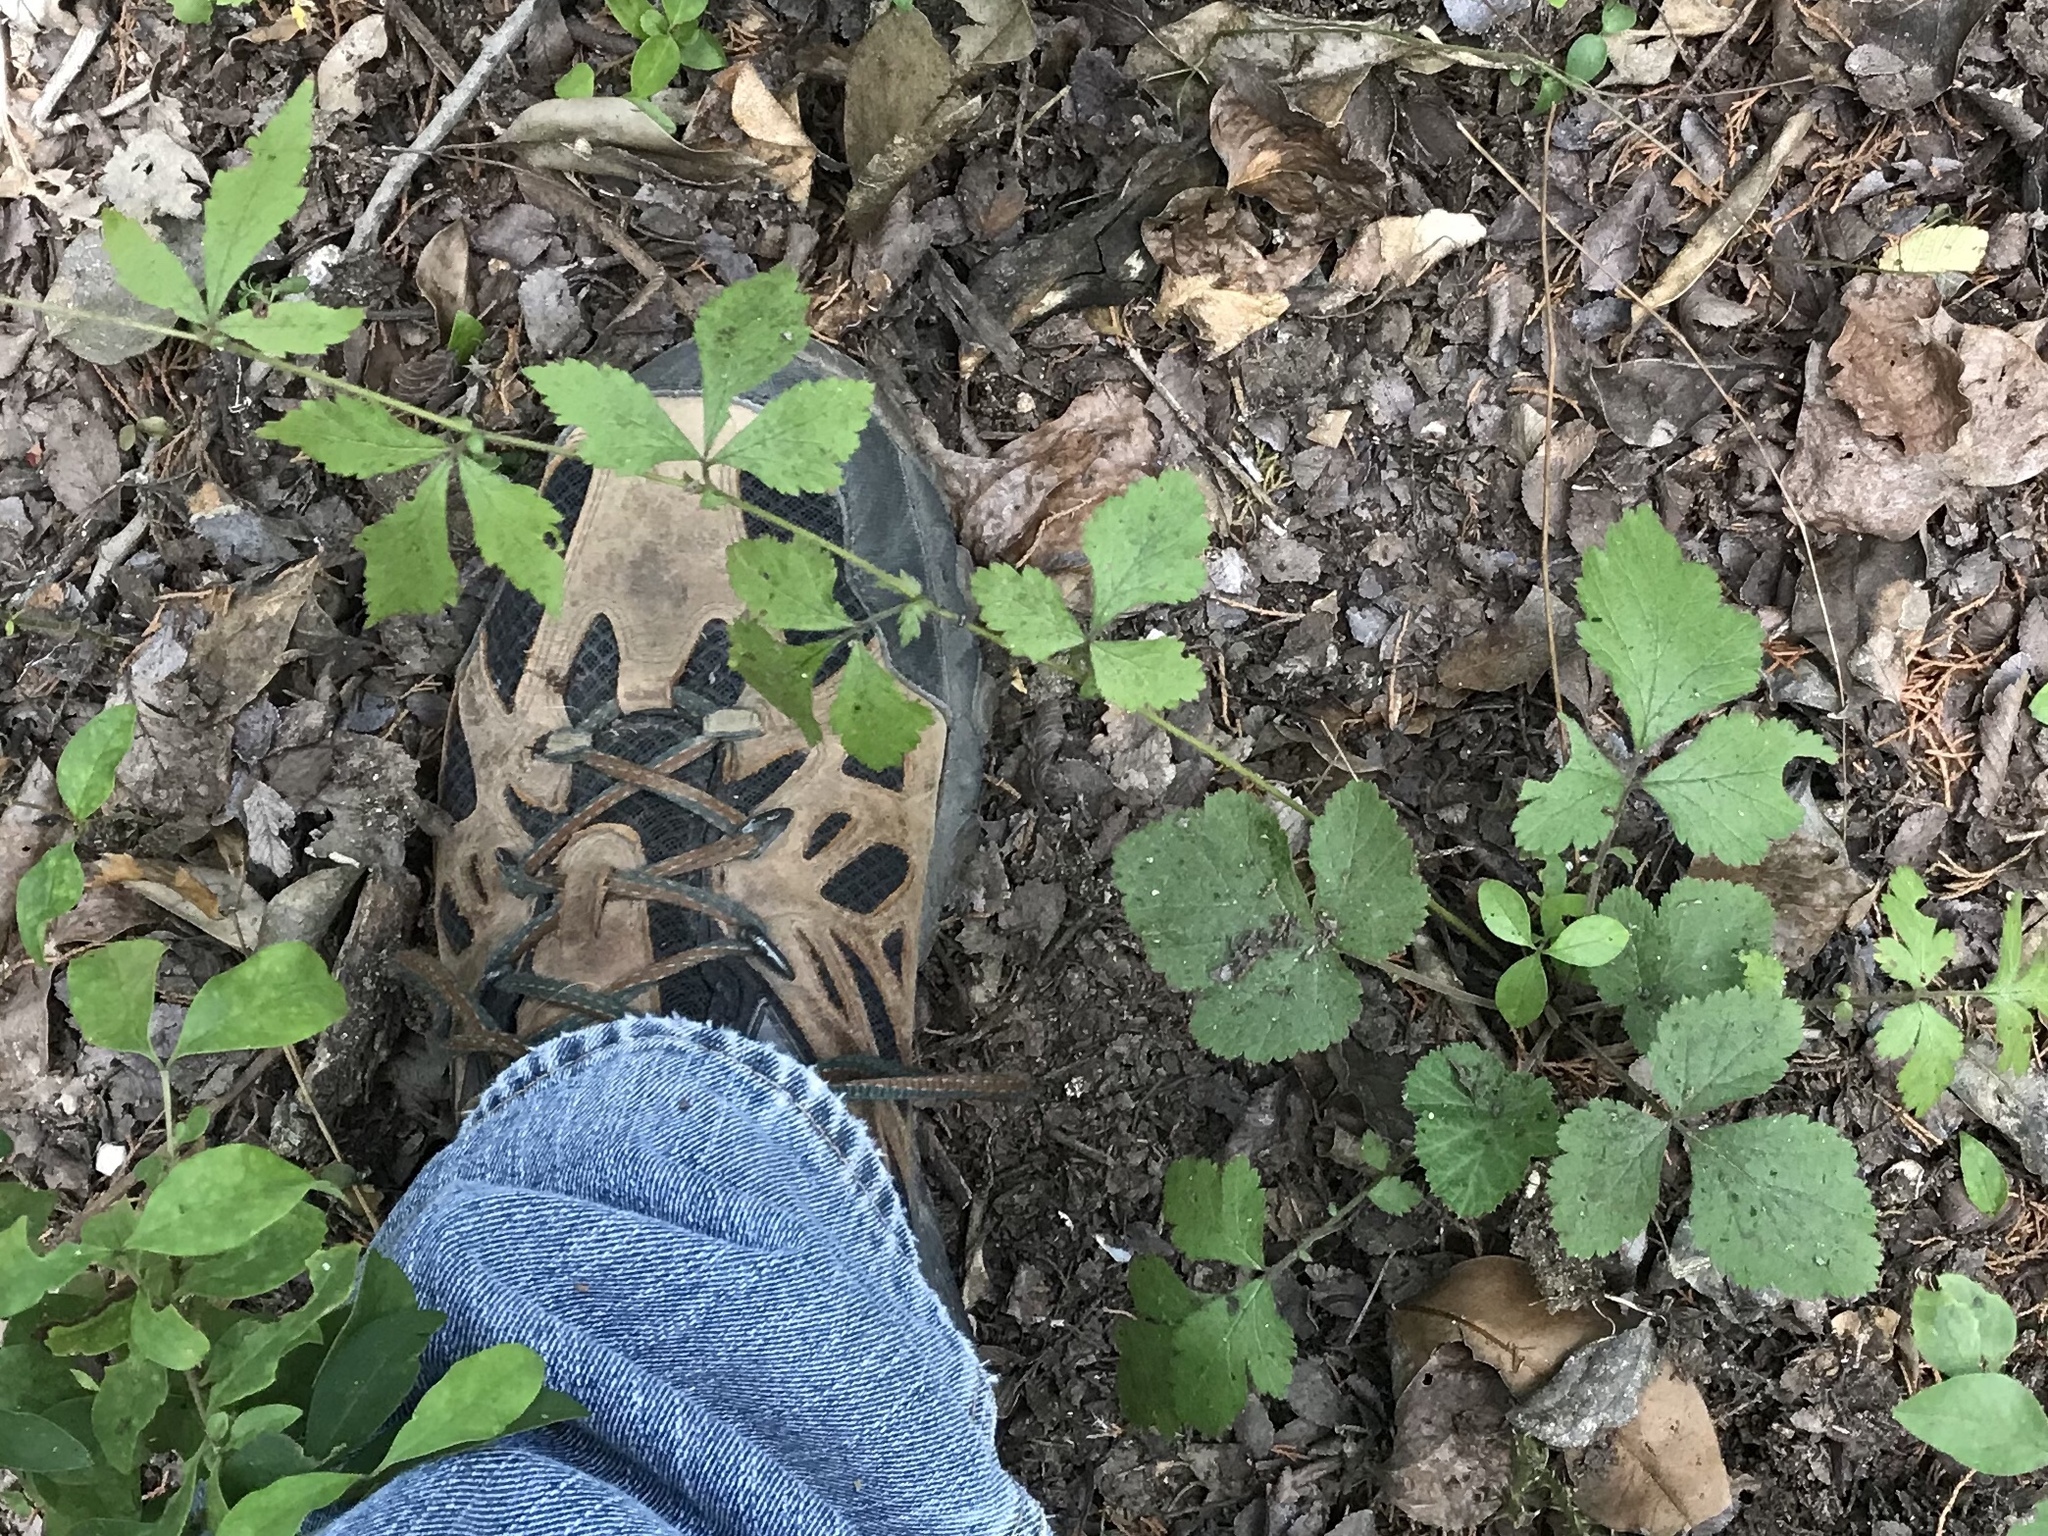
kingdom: Plantae
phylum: Tracheophyta
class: Magnoliopsida
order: Rosales
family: Rosaceae
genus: Geum
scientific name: Geum canadense
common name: White avens
